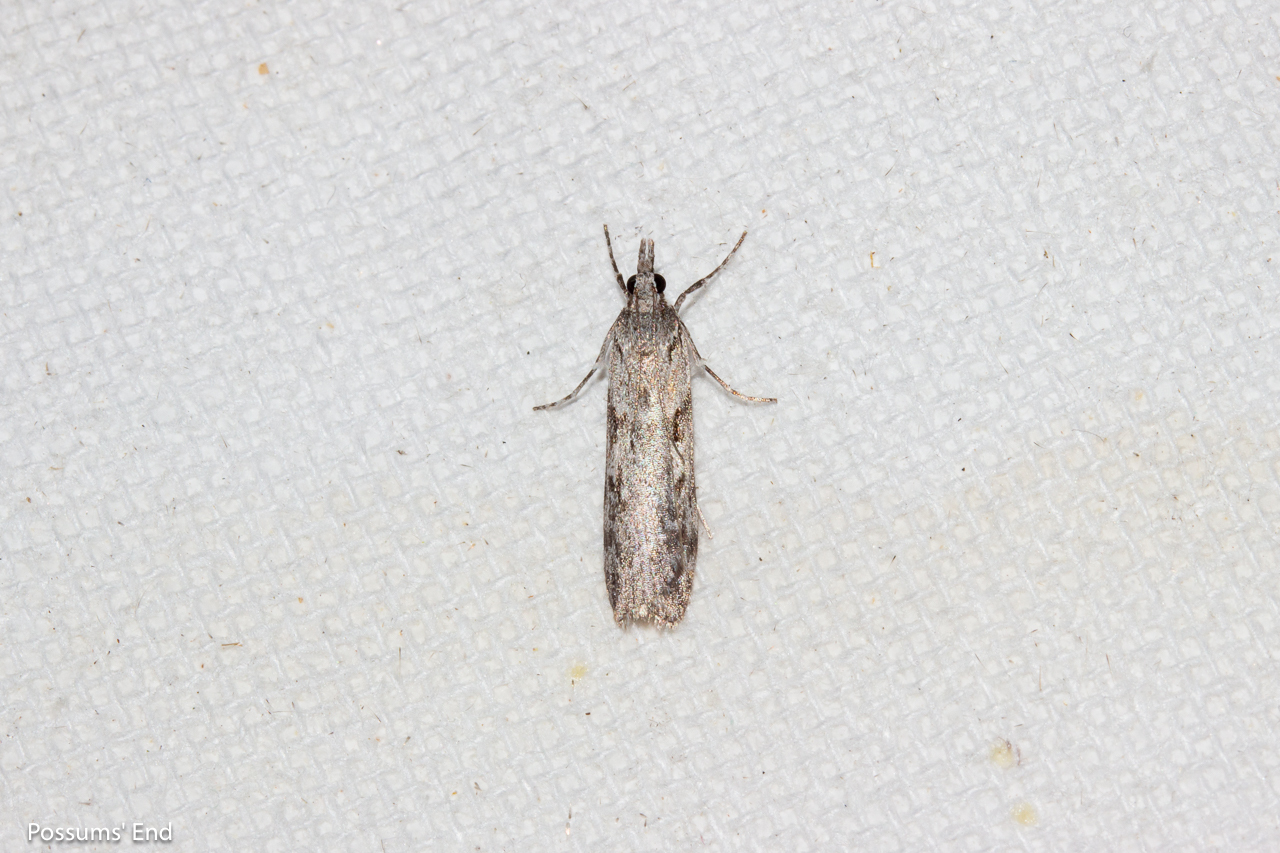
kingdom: Animalia
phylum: Arthropoda
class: Insecta
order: Lepidoptera
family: Crambidae
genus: Scoparia
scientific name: Scoparia halopis
